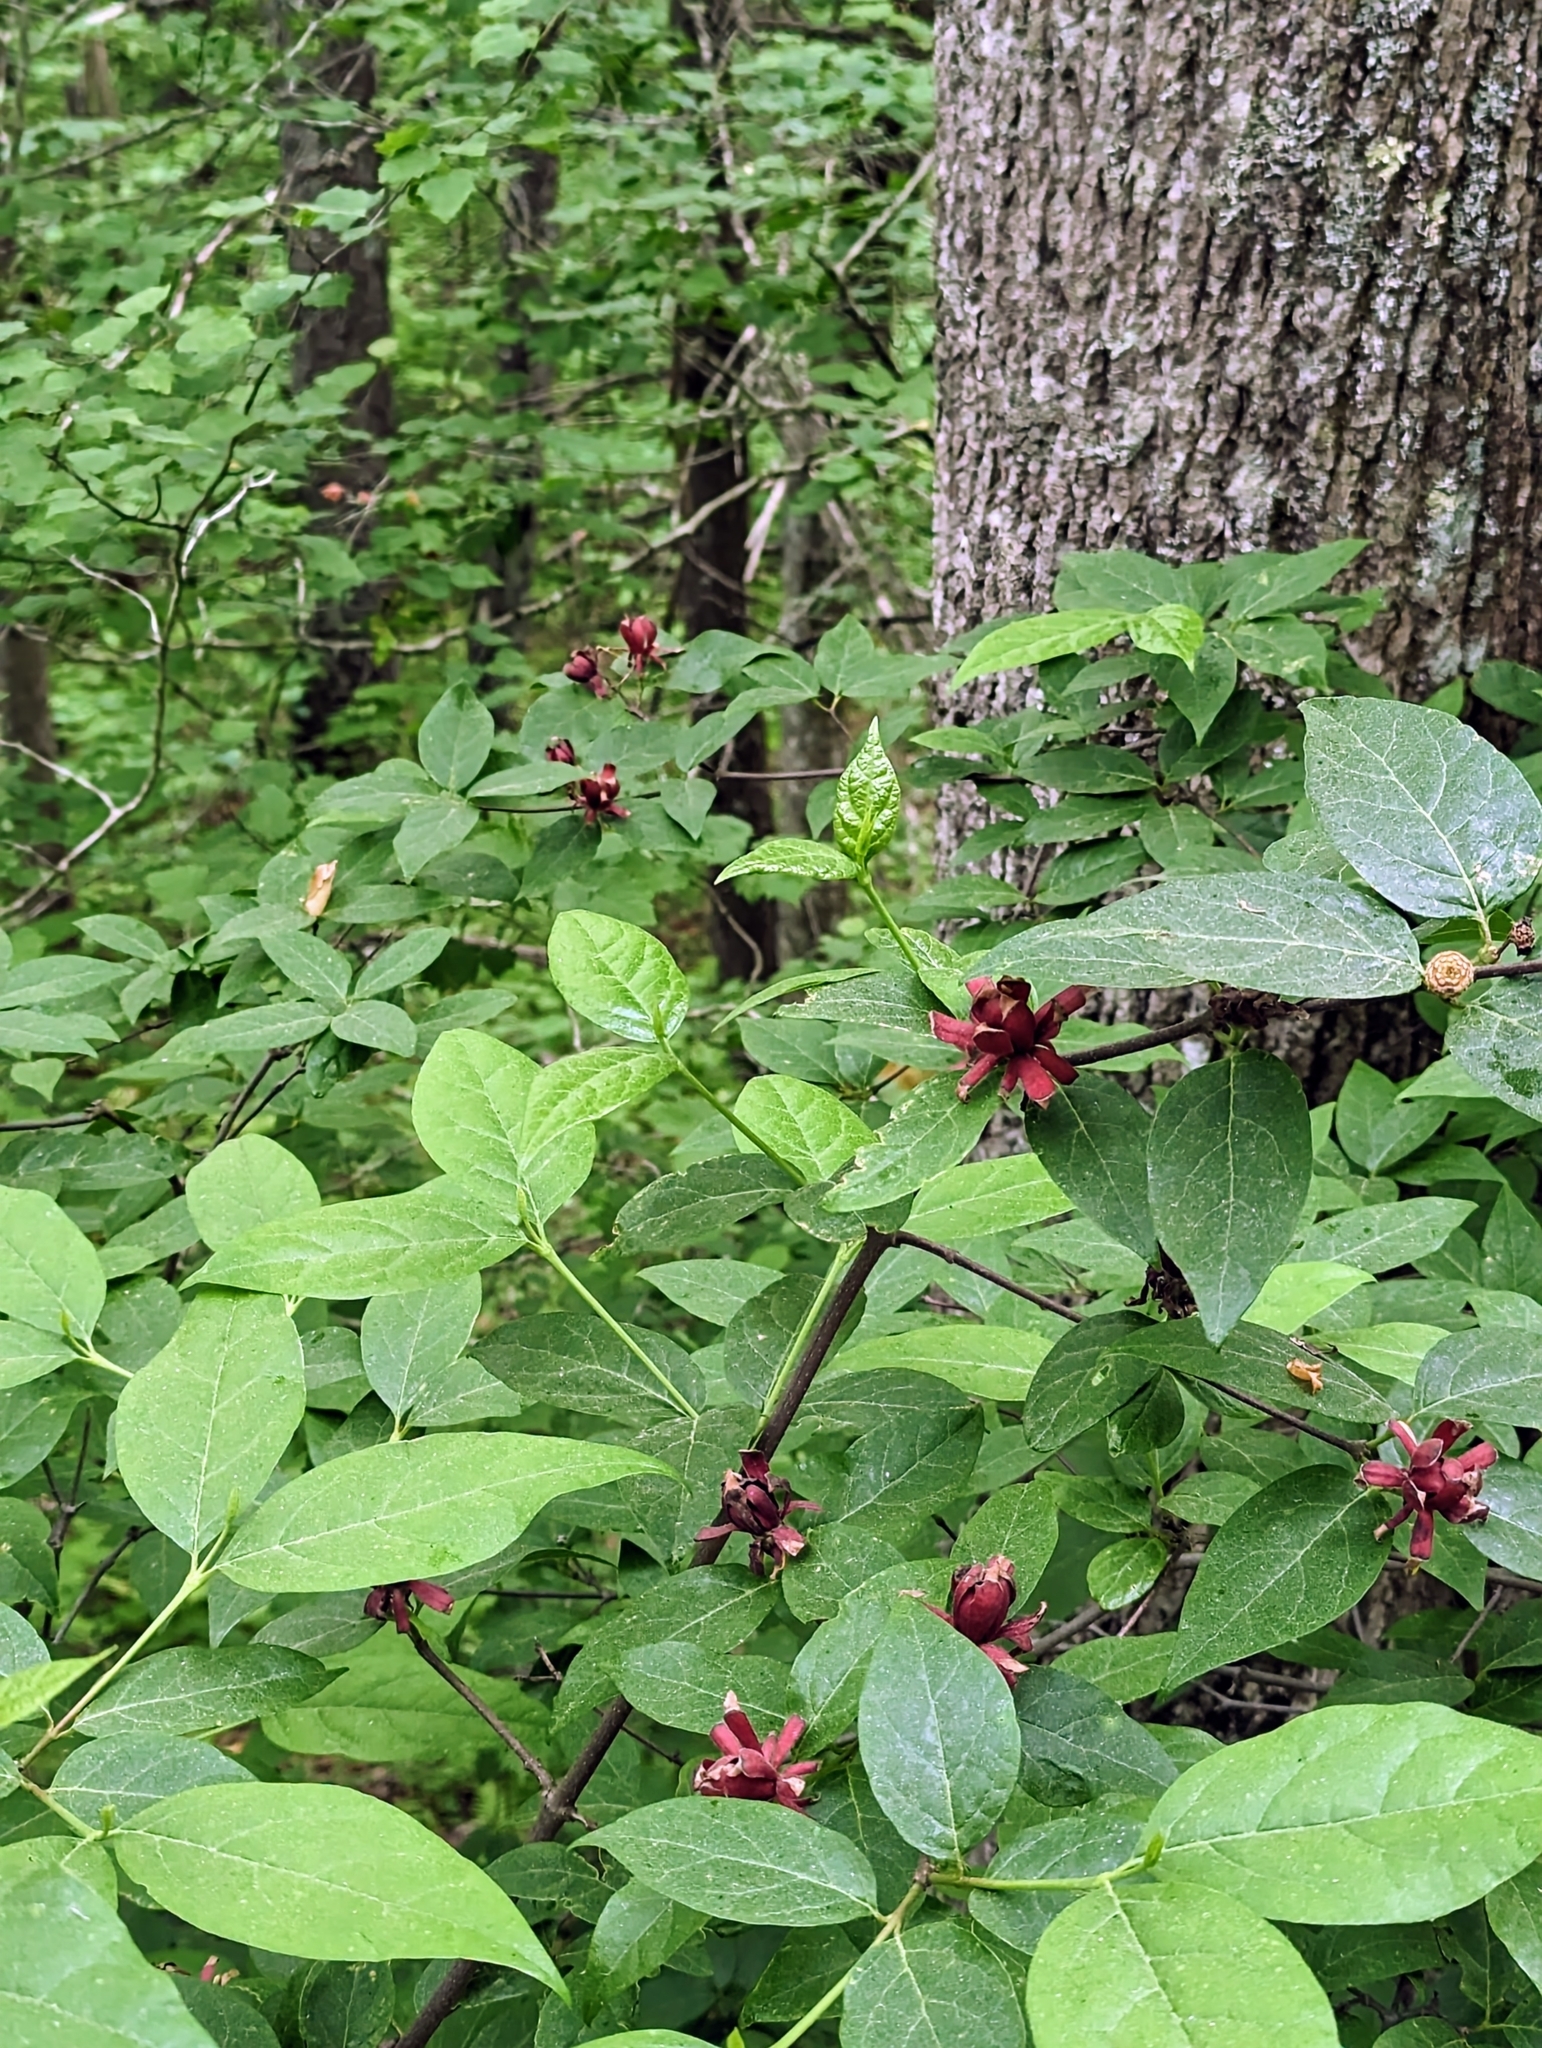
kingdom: Plantae
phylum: Tracheophyta
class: Magnoliopsida
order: Laurales
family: Calycanthaceae
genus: Calycanthus
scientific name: Calycanthus floridus
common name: Carolina-allspice
